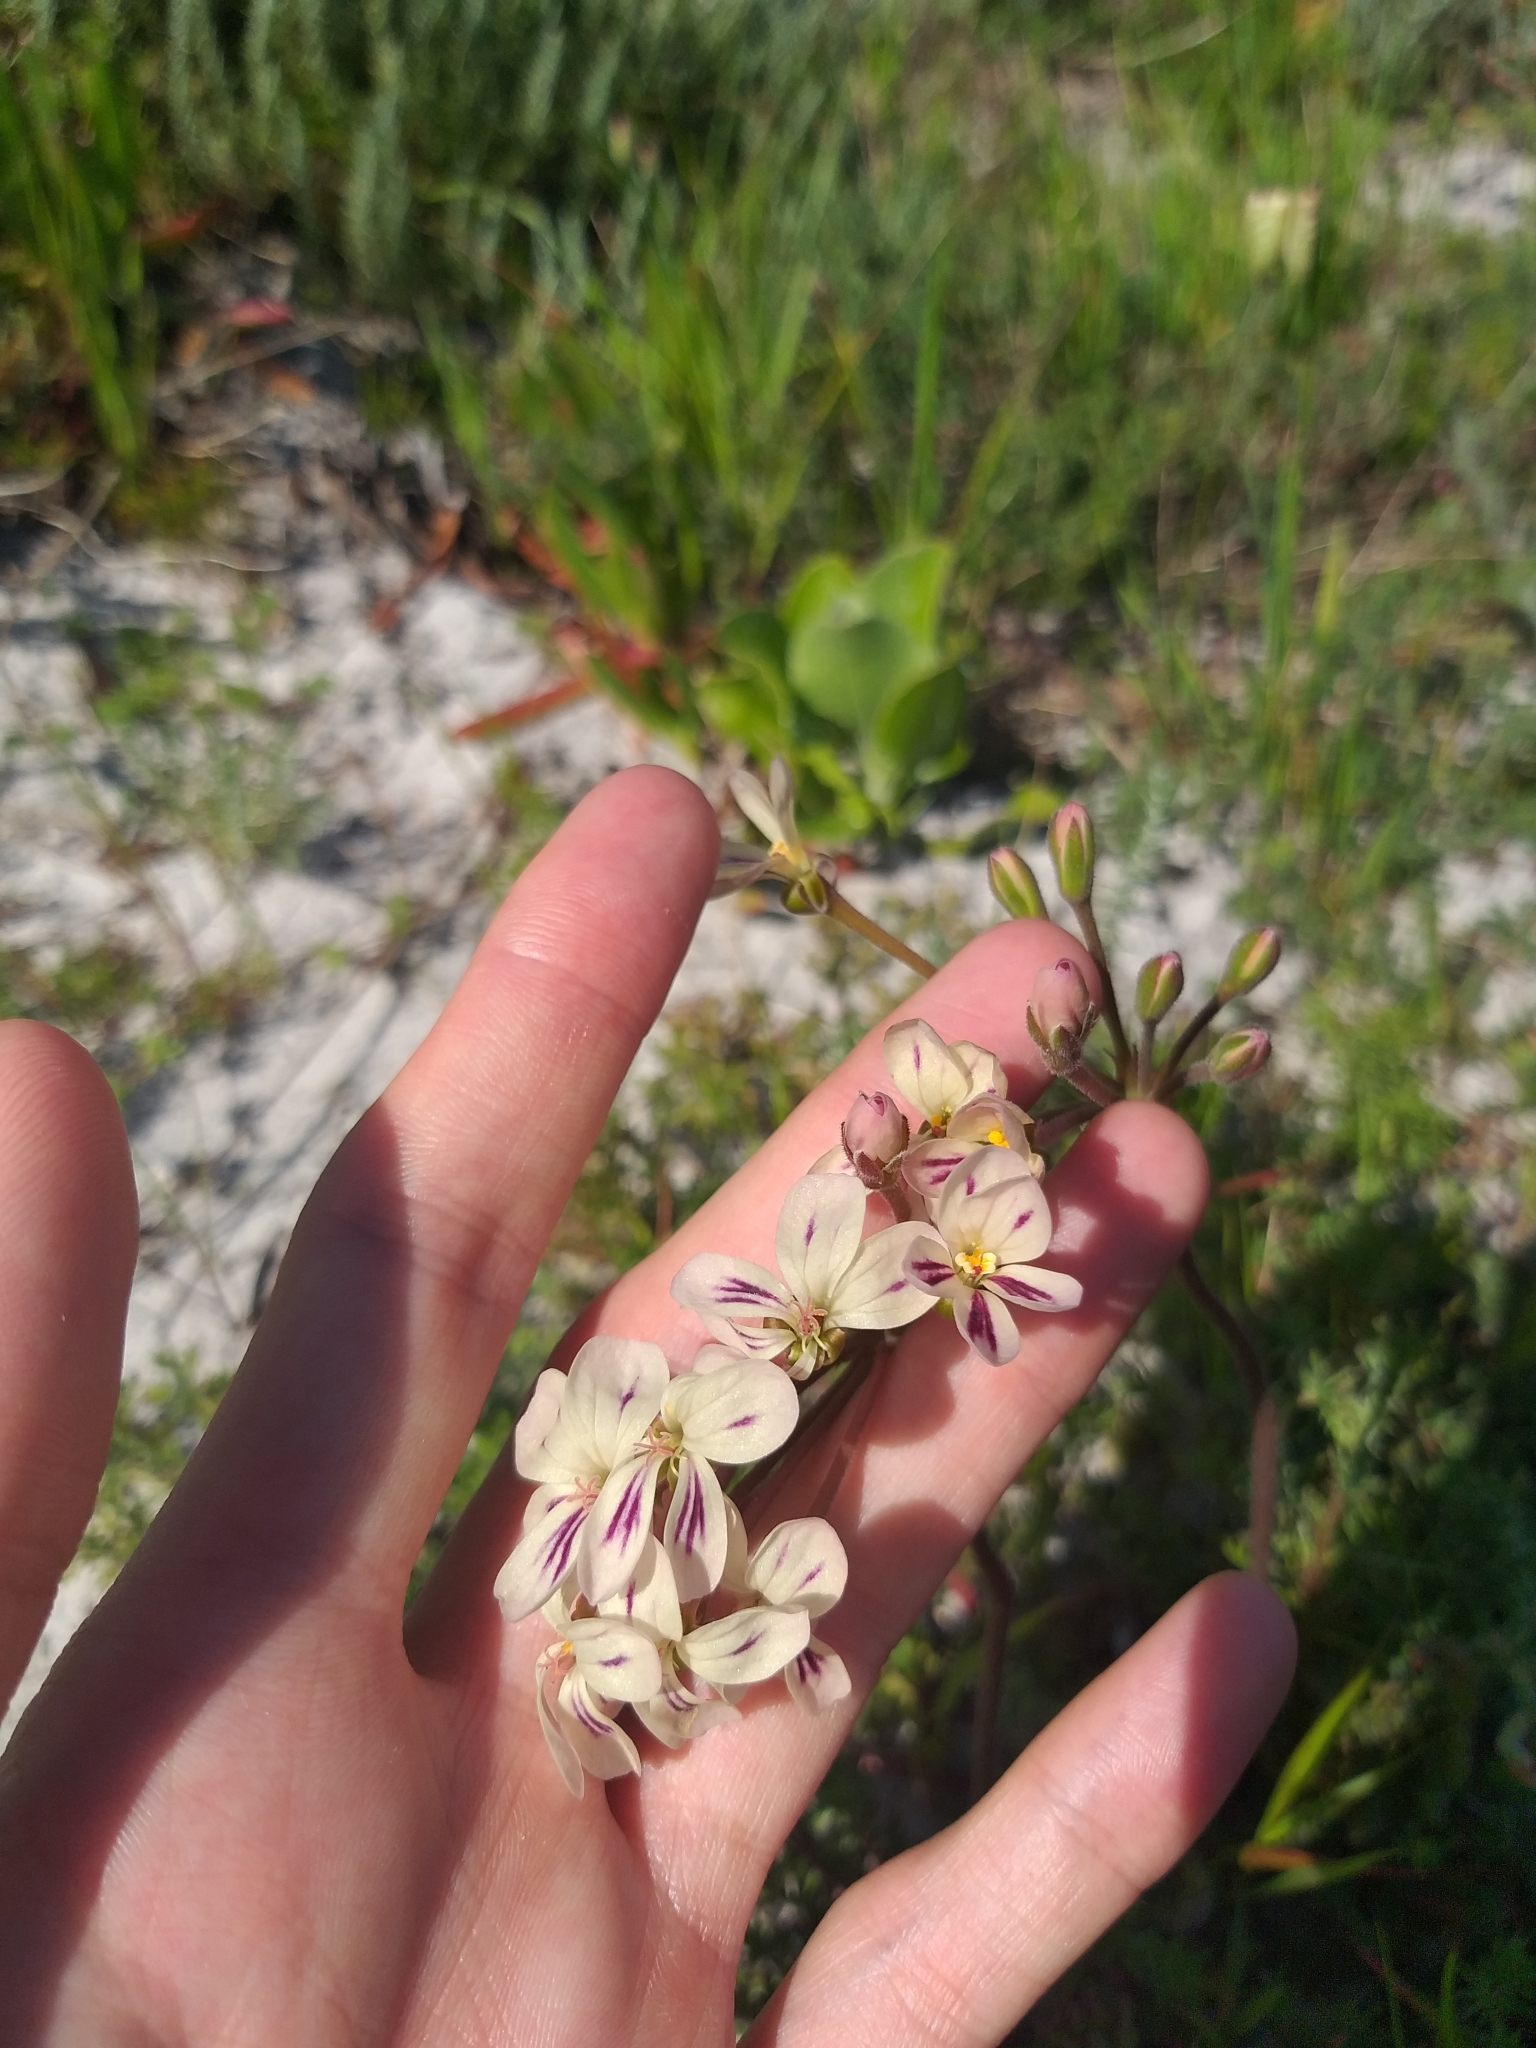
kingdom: Plantae
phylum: Tracheophyta
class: Magnoliopsida
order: Geraniales
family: Geraniaceae
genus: Pelargonium
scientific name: Pelargonium triste
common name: Night-scent pelargonium
